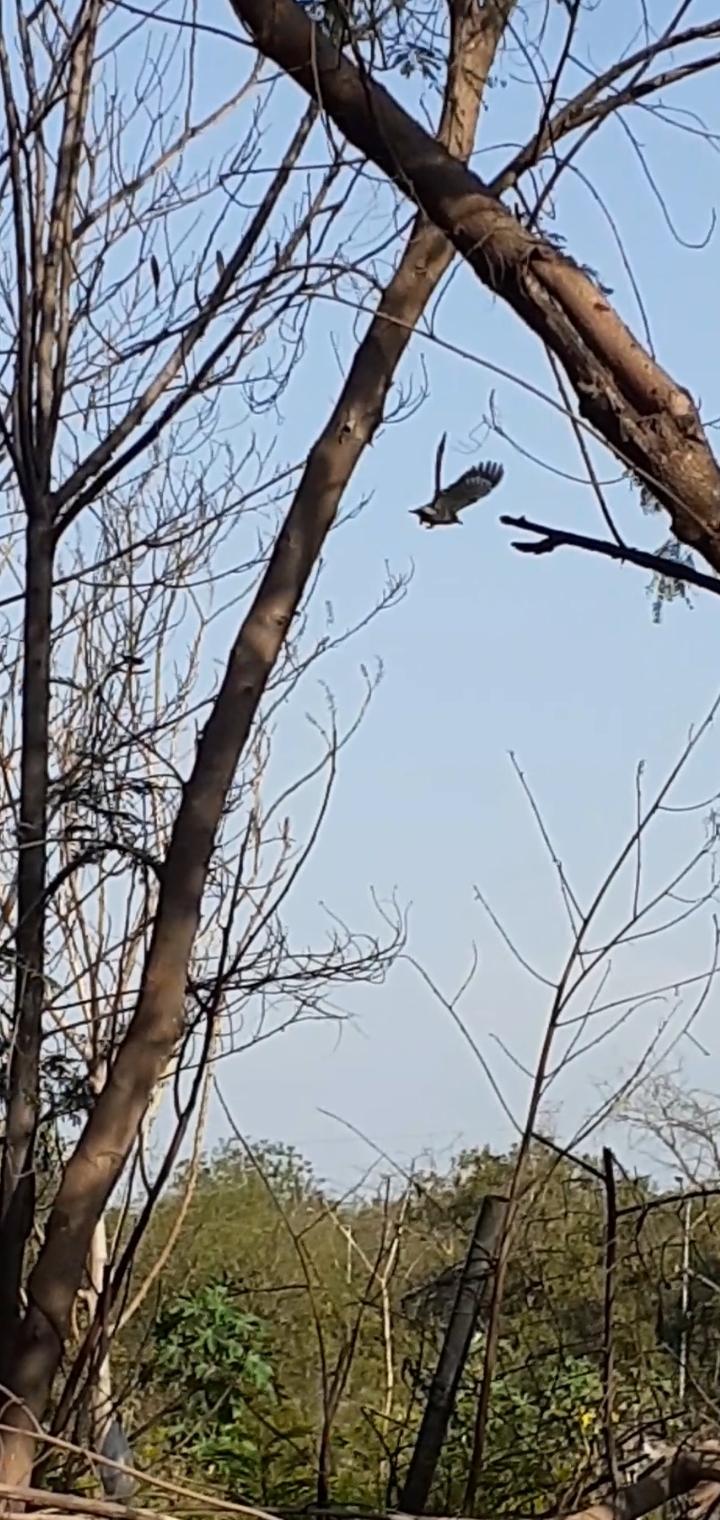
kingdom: Animalia
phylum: Chordata
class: Aves
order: Piciformes
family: Picidae
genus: Melanerpes
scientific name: Melanerpes aurifrons
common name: Golden-fronted woodpecker
